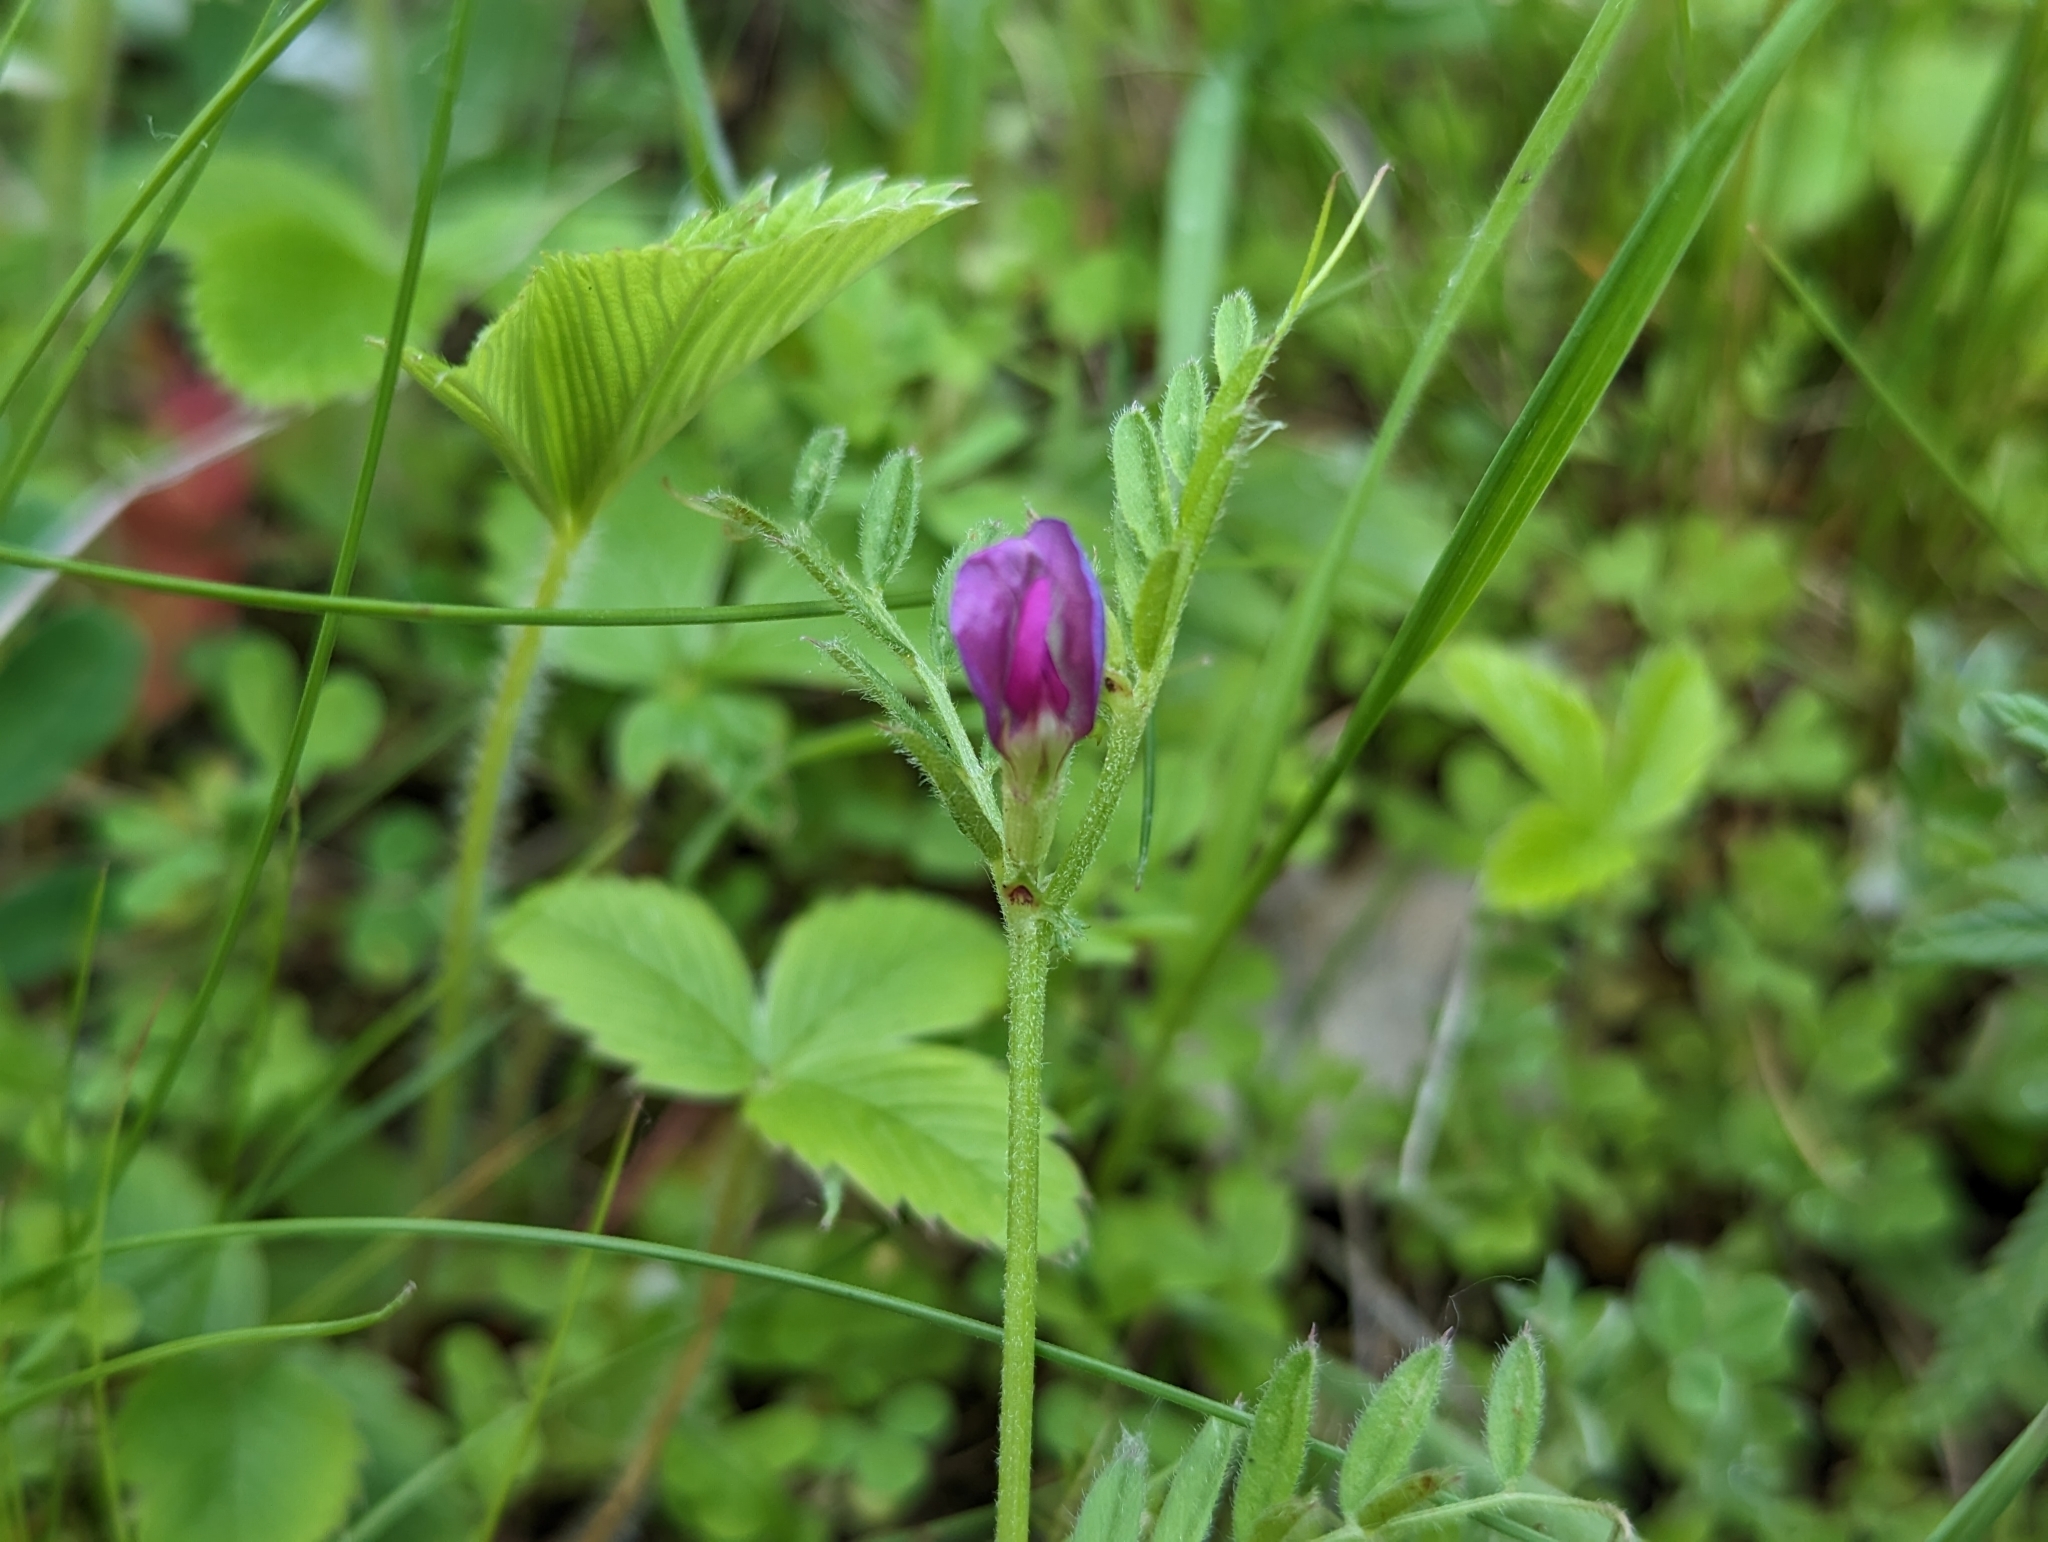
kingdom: Plantae
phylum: Tracheophyta
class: Magnoliopsida
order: Fabales
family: Fabaceae
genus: Vicia
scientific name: Vicia sativa
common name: Garden vetch
